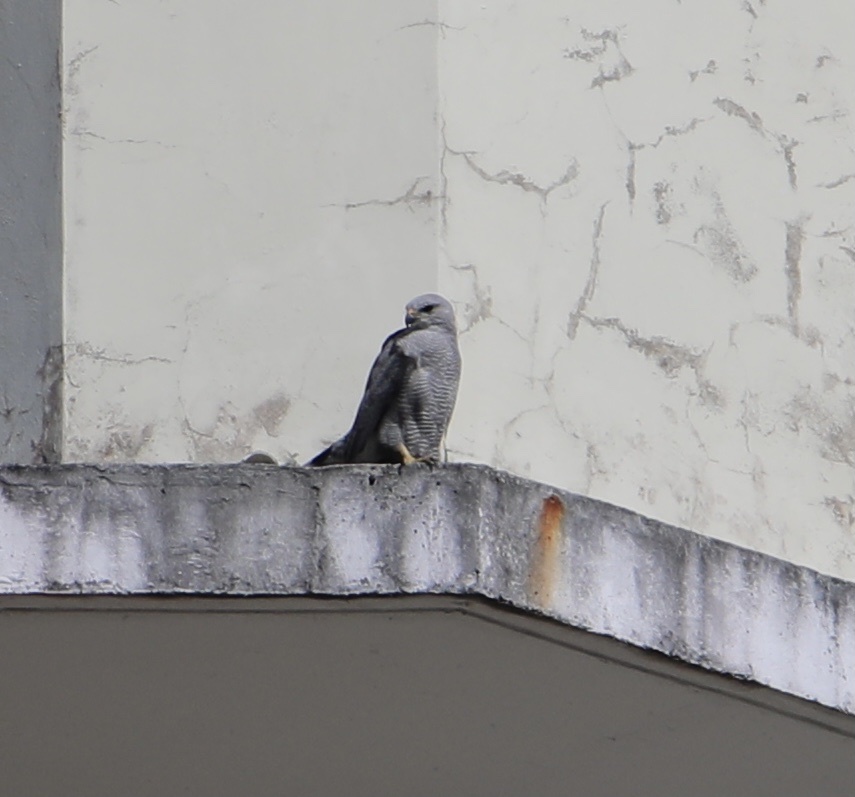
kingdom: Animalia
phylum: Chordata
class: Aves
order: Accipitriformes
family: Accipitridae
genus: Buteo
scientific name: Buteo nitidus
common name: Grey-lined hawk
